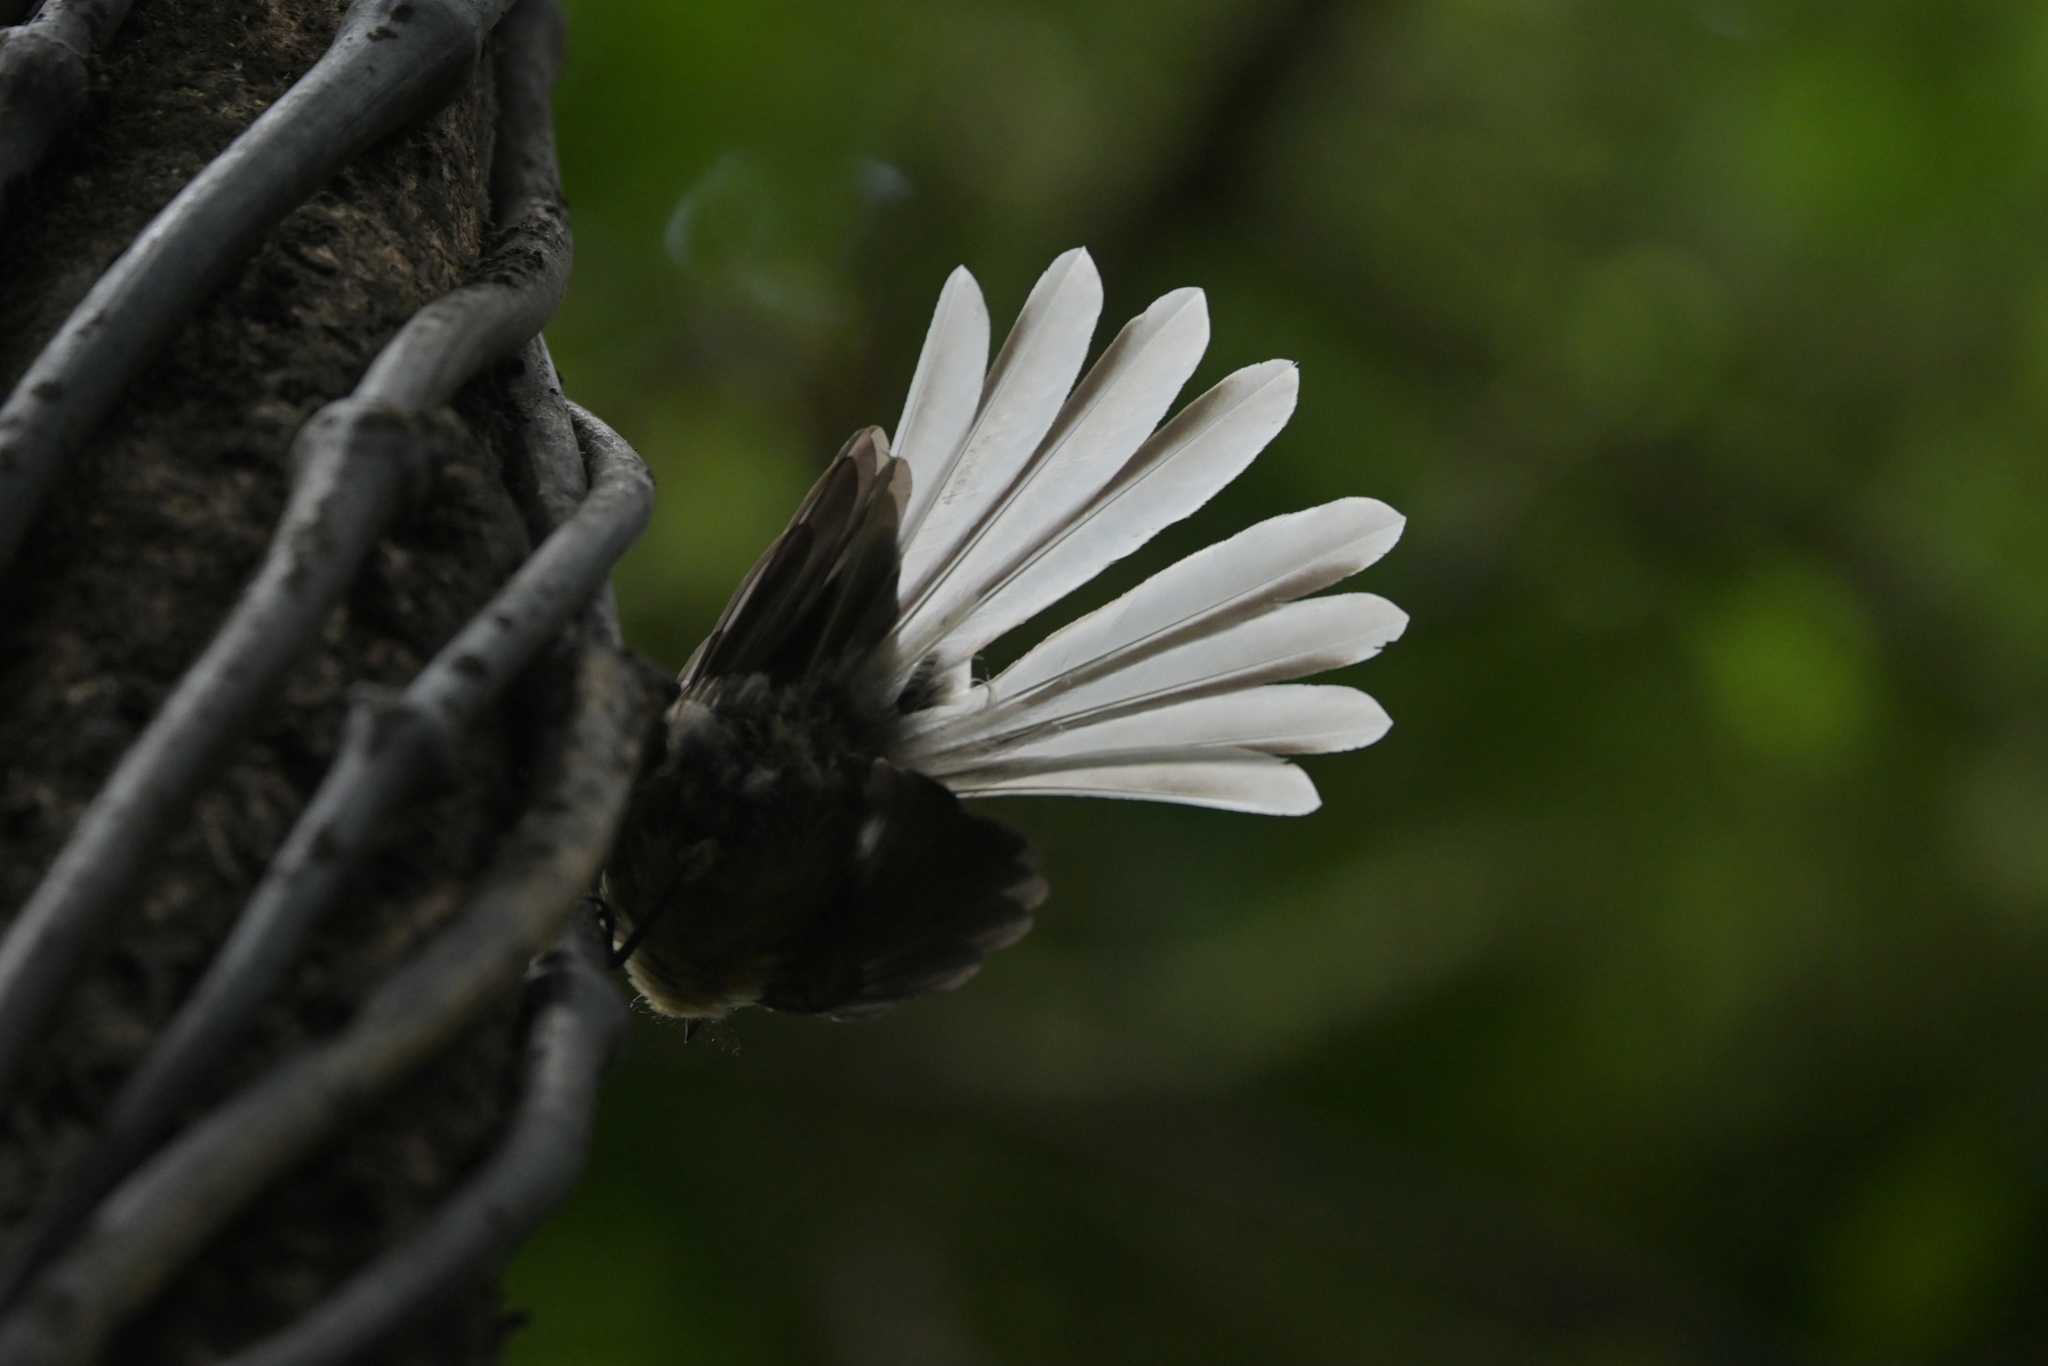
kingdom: Animalia
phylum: Chordata
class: Aves
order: Passeriformes
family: Rhipiduridae
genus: Rhipidura
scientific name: Rhipidura fuliginosa
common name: New zealand fantail
